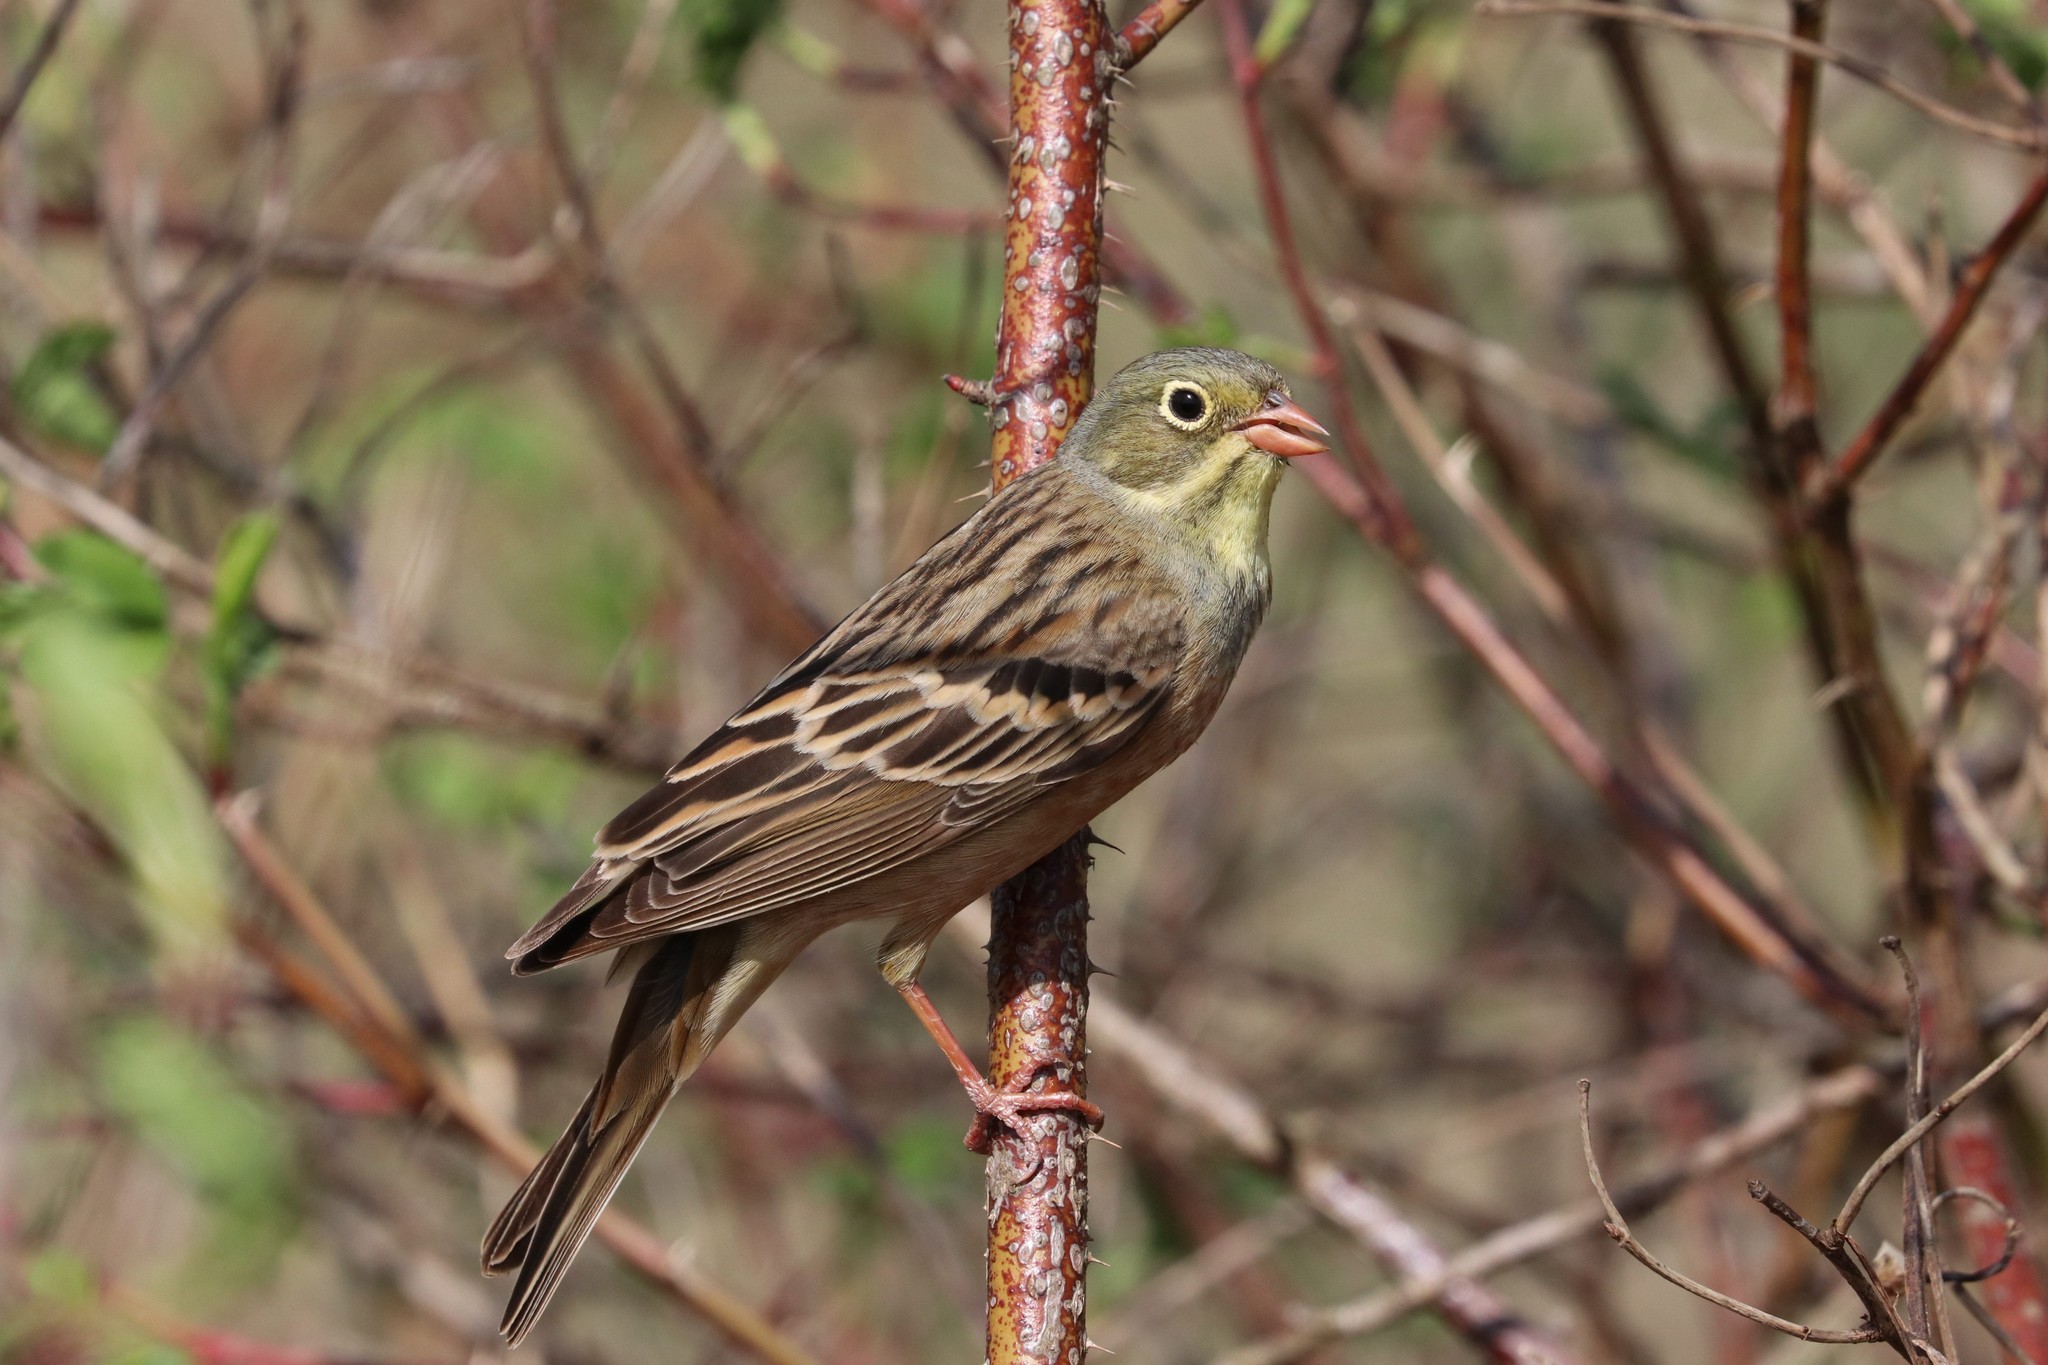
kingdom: Animalia
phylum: Chordata
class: Aves
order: Passeriformes
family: Emberizidae
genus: Emberiza
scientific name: Emberiza hortulana
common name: Ortolan bunting
